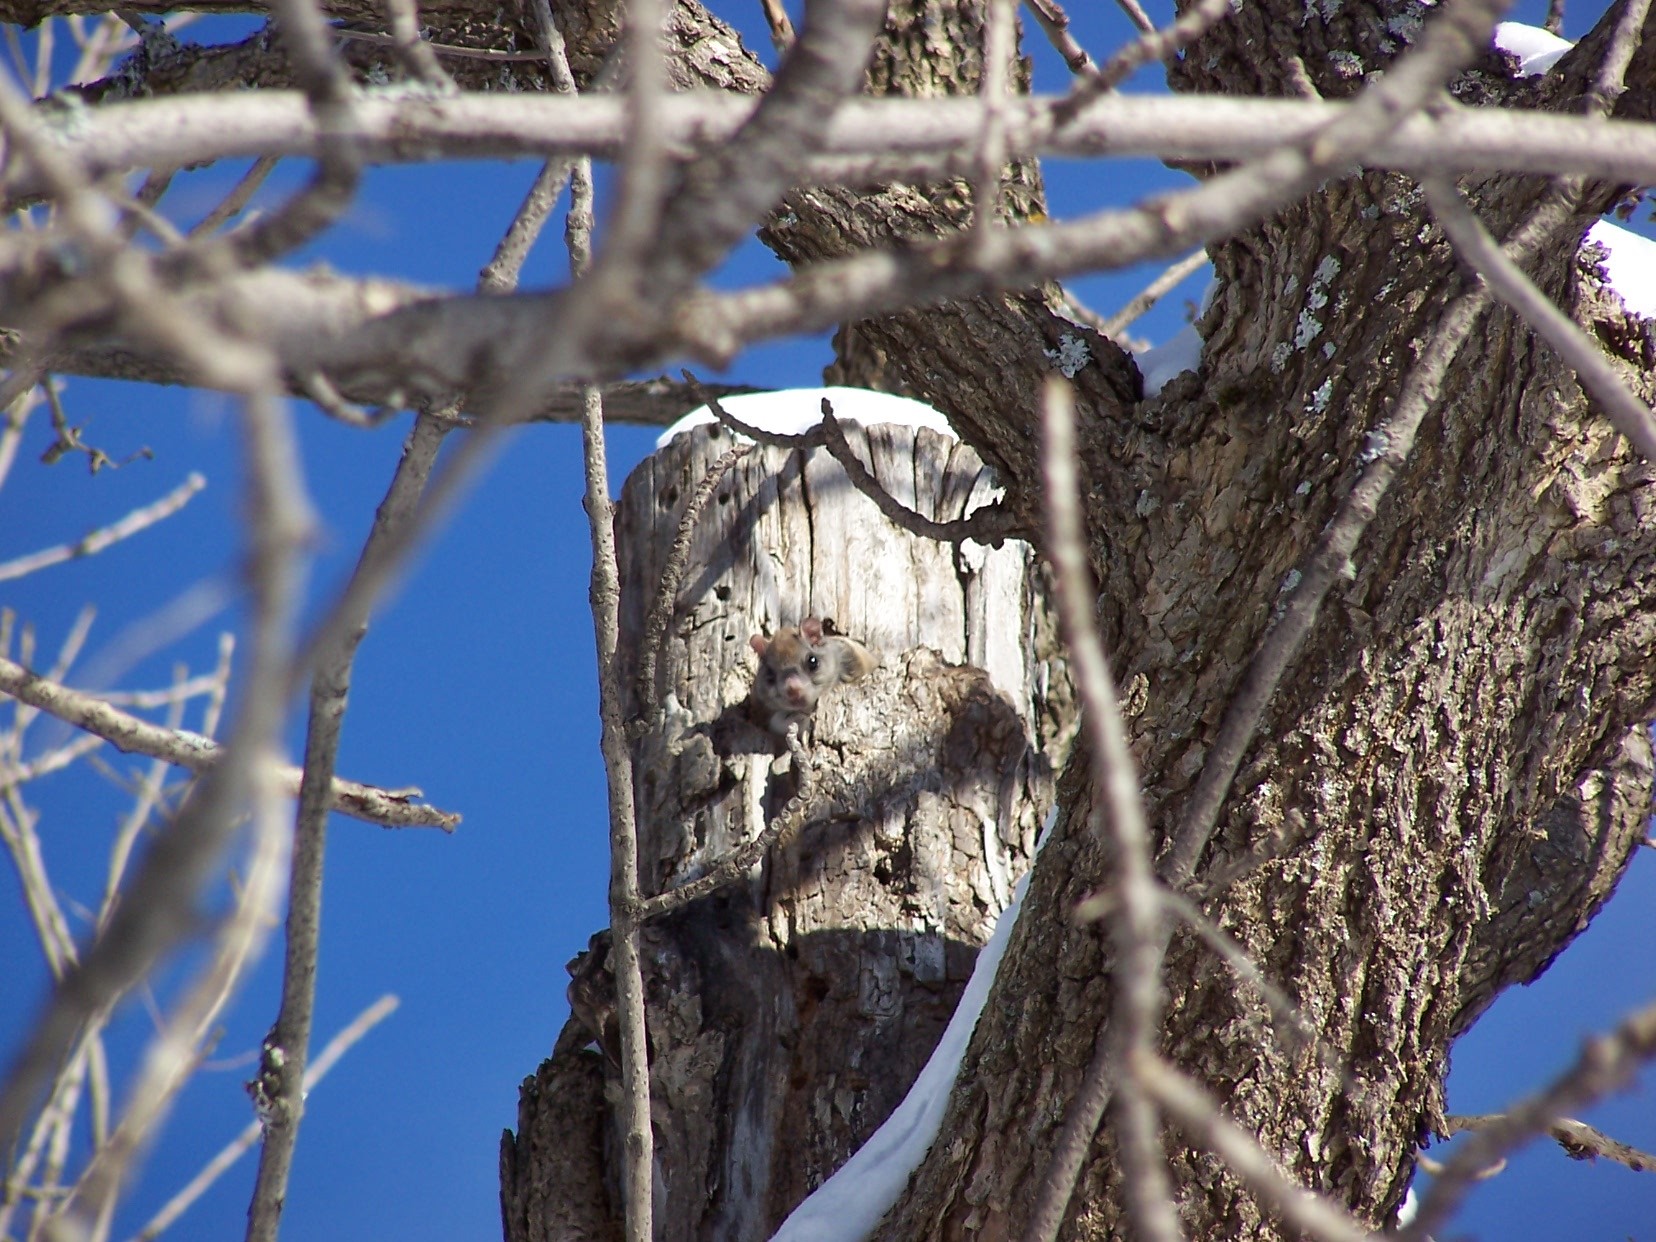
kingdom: Animalia
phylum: Chordata
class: Mammalia
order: Rodentia
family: Sciuridae
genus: Glaucomys
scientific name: Glaucomys sabrinus
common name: Northern flying squirrel
